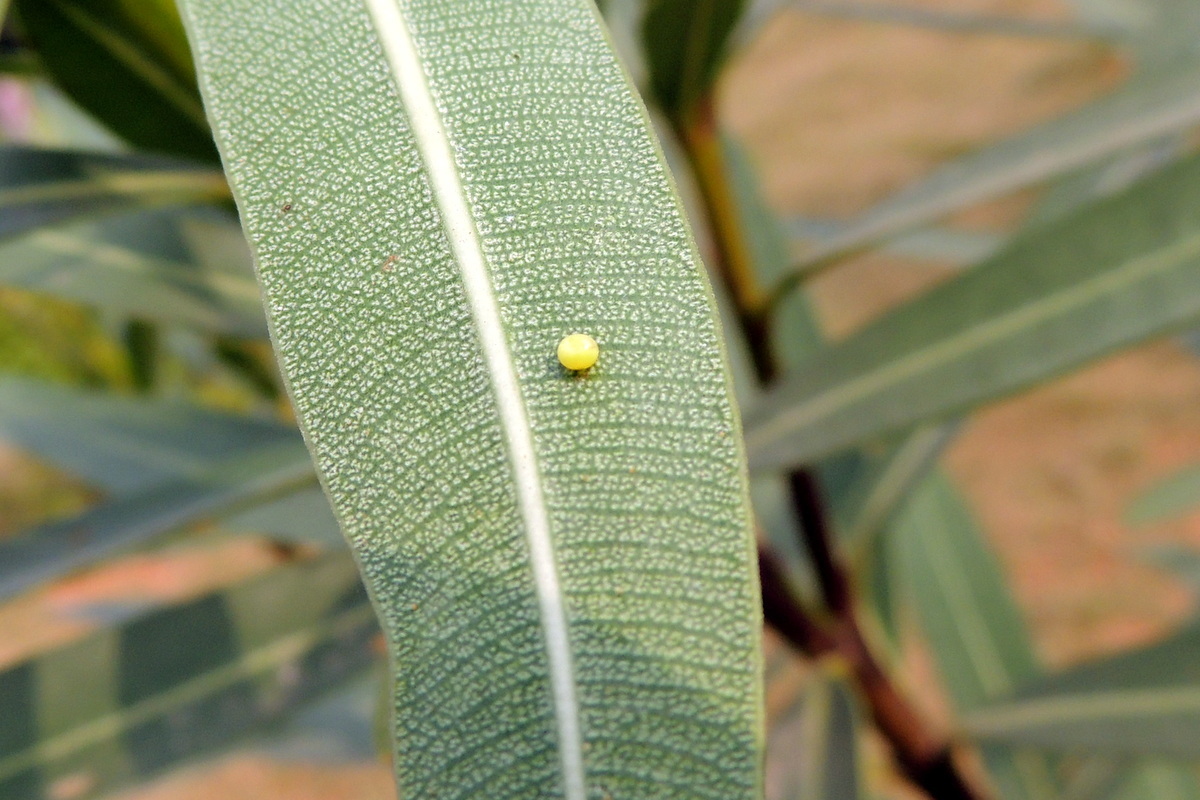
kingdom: Animalia
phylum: Arthropoda
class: Insecta
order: Lepidoptera
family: Sphingidae
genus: Daphnis
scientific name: Daphnis nerii
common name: Oleander hawk-moth
